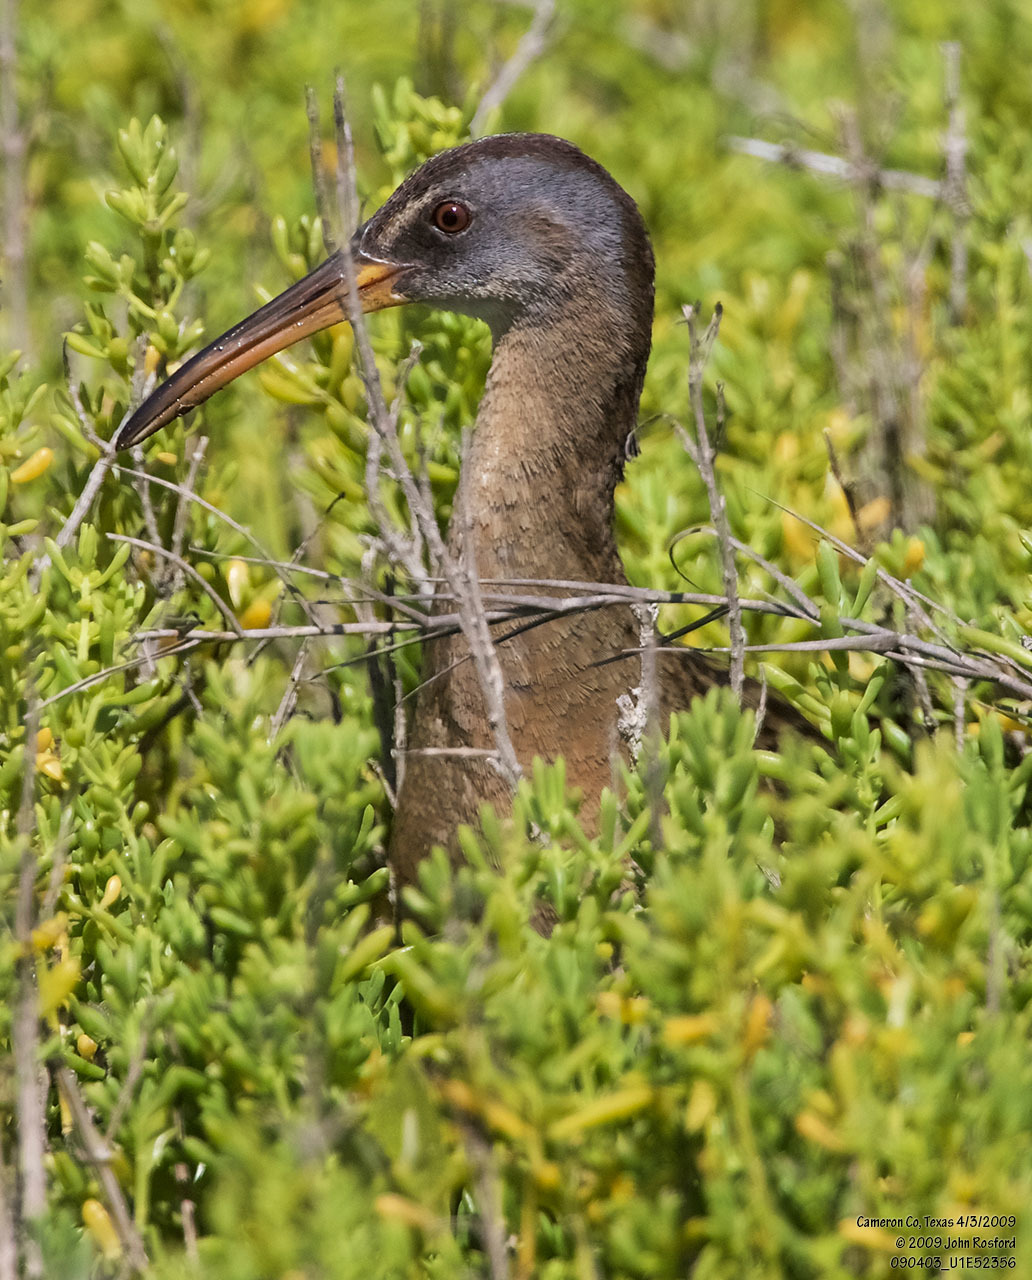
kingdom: Animalia
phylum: Chordata
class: Aves
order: Gruiformes
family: Rallidae
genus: Rallus
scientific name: Rallus crepitans
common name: Clapper rail
